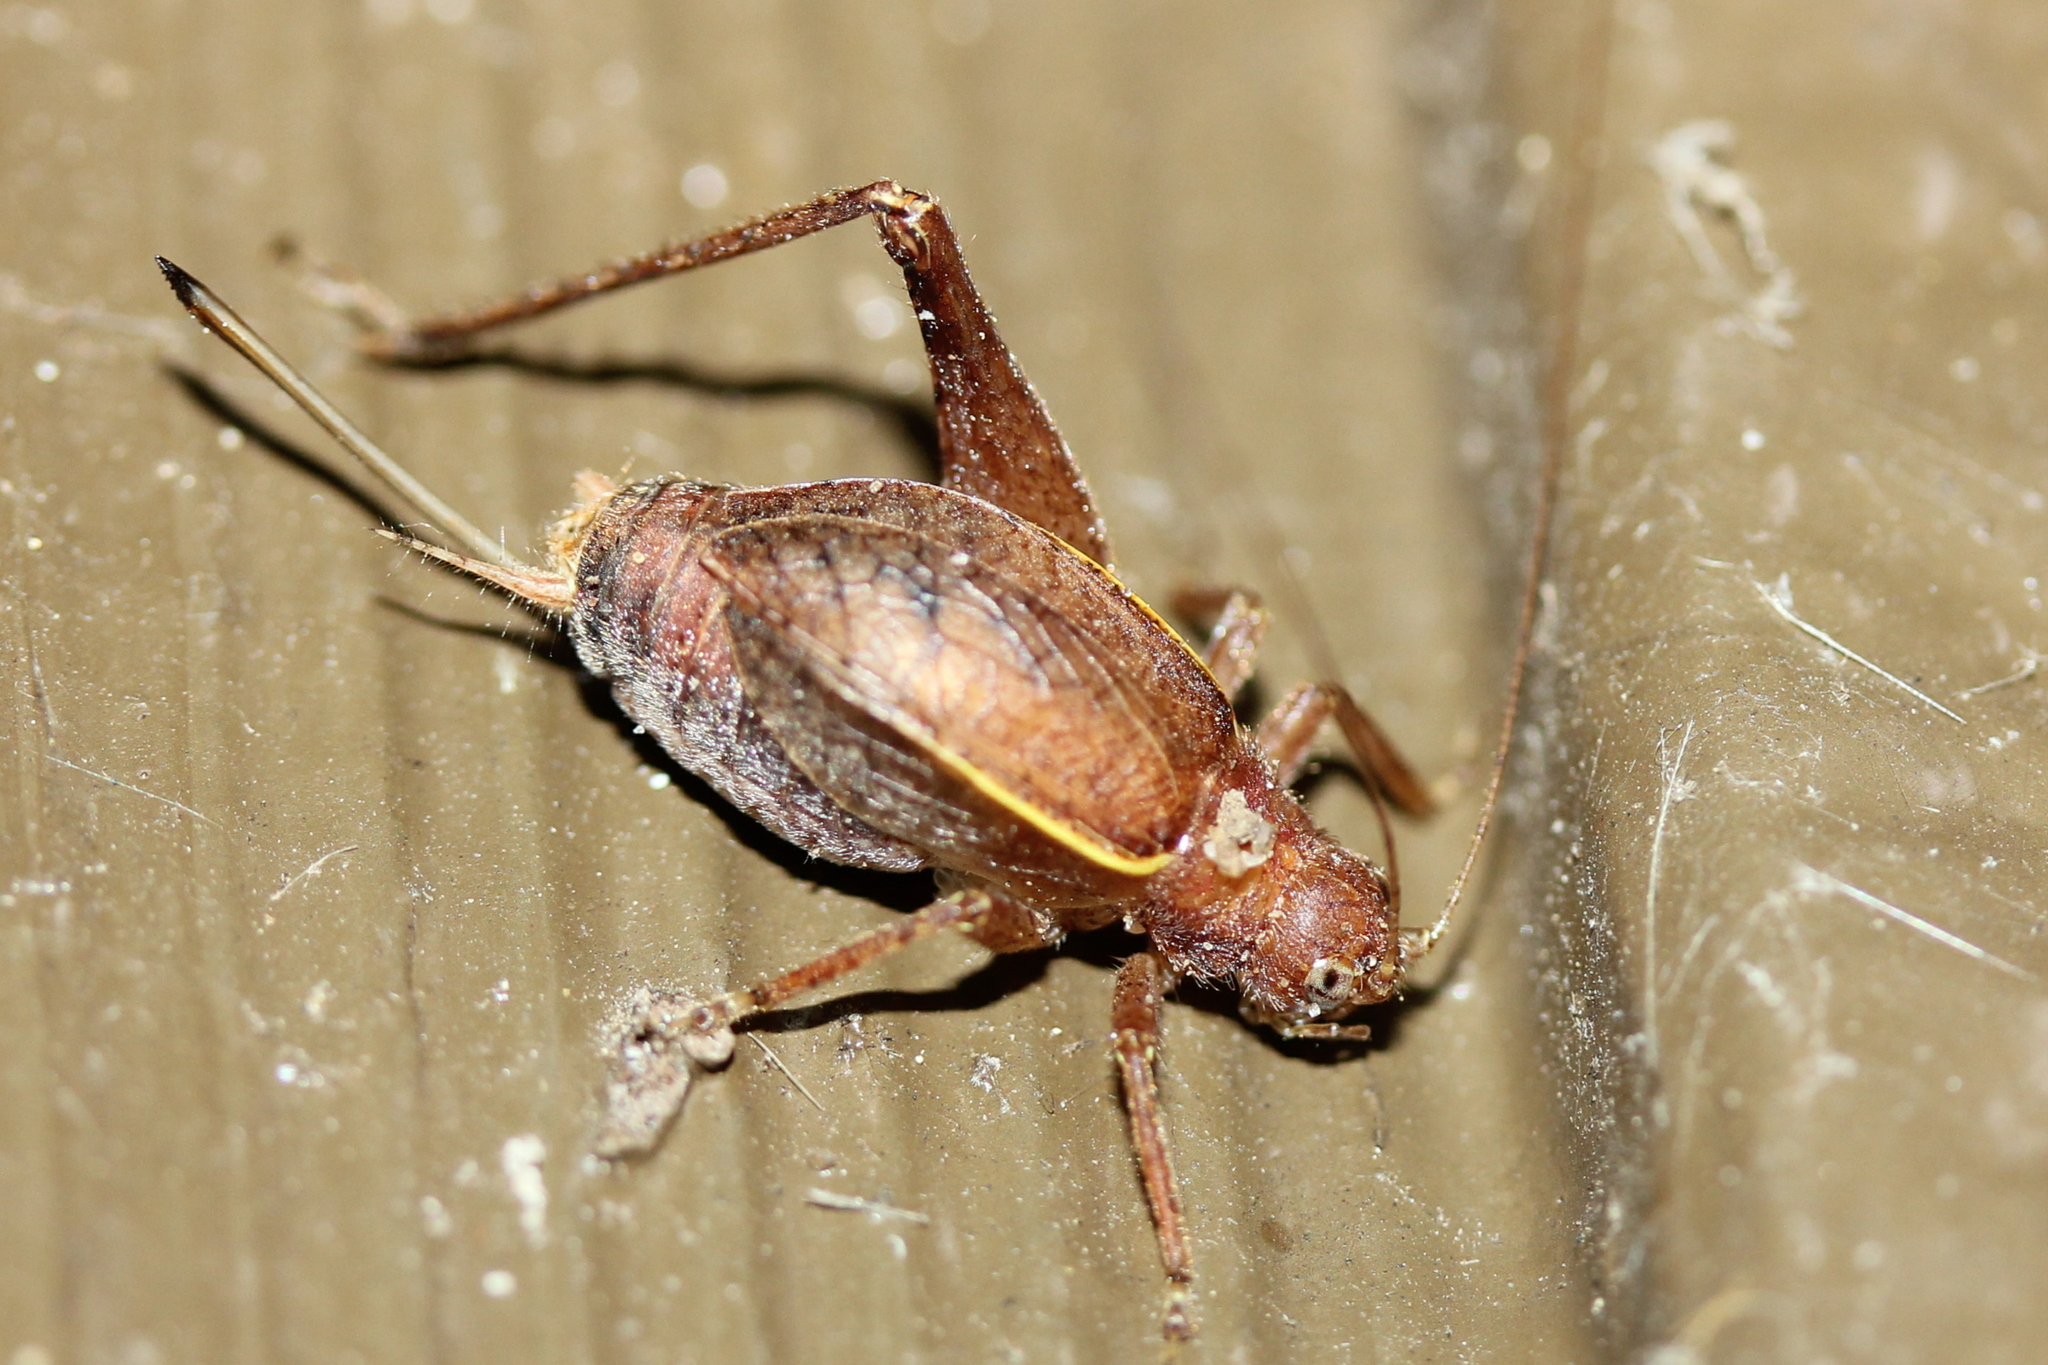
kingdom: Animalia
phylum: Arthropoda
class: Insecta
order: Orthoptera
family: Gryllidae
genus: Hapithus
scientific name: Hapithus agitator
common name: Restless bush cricket
